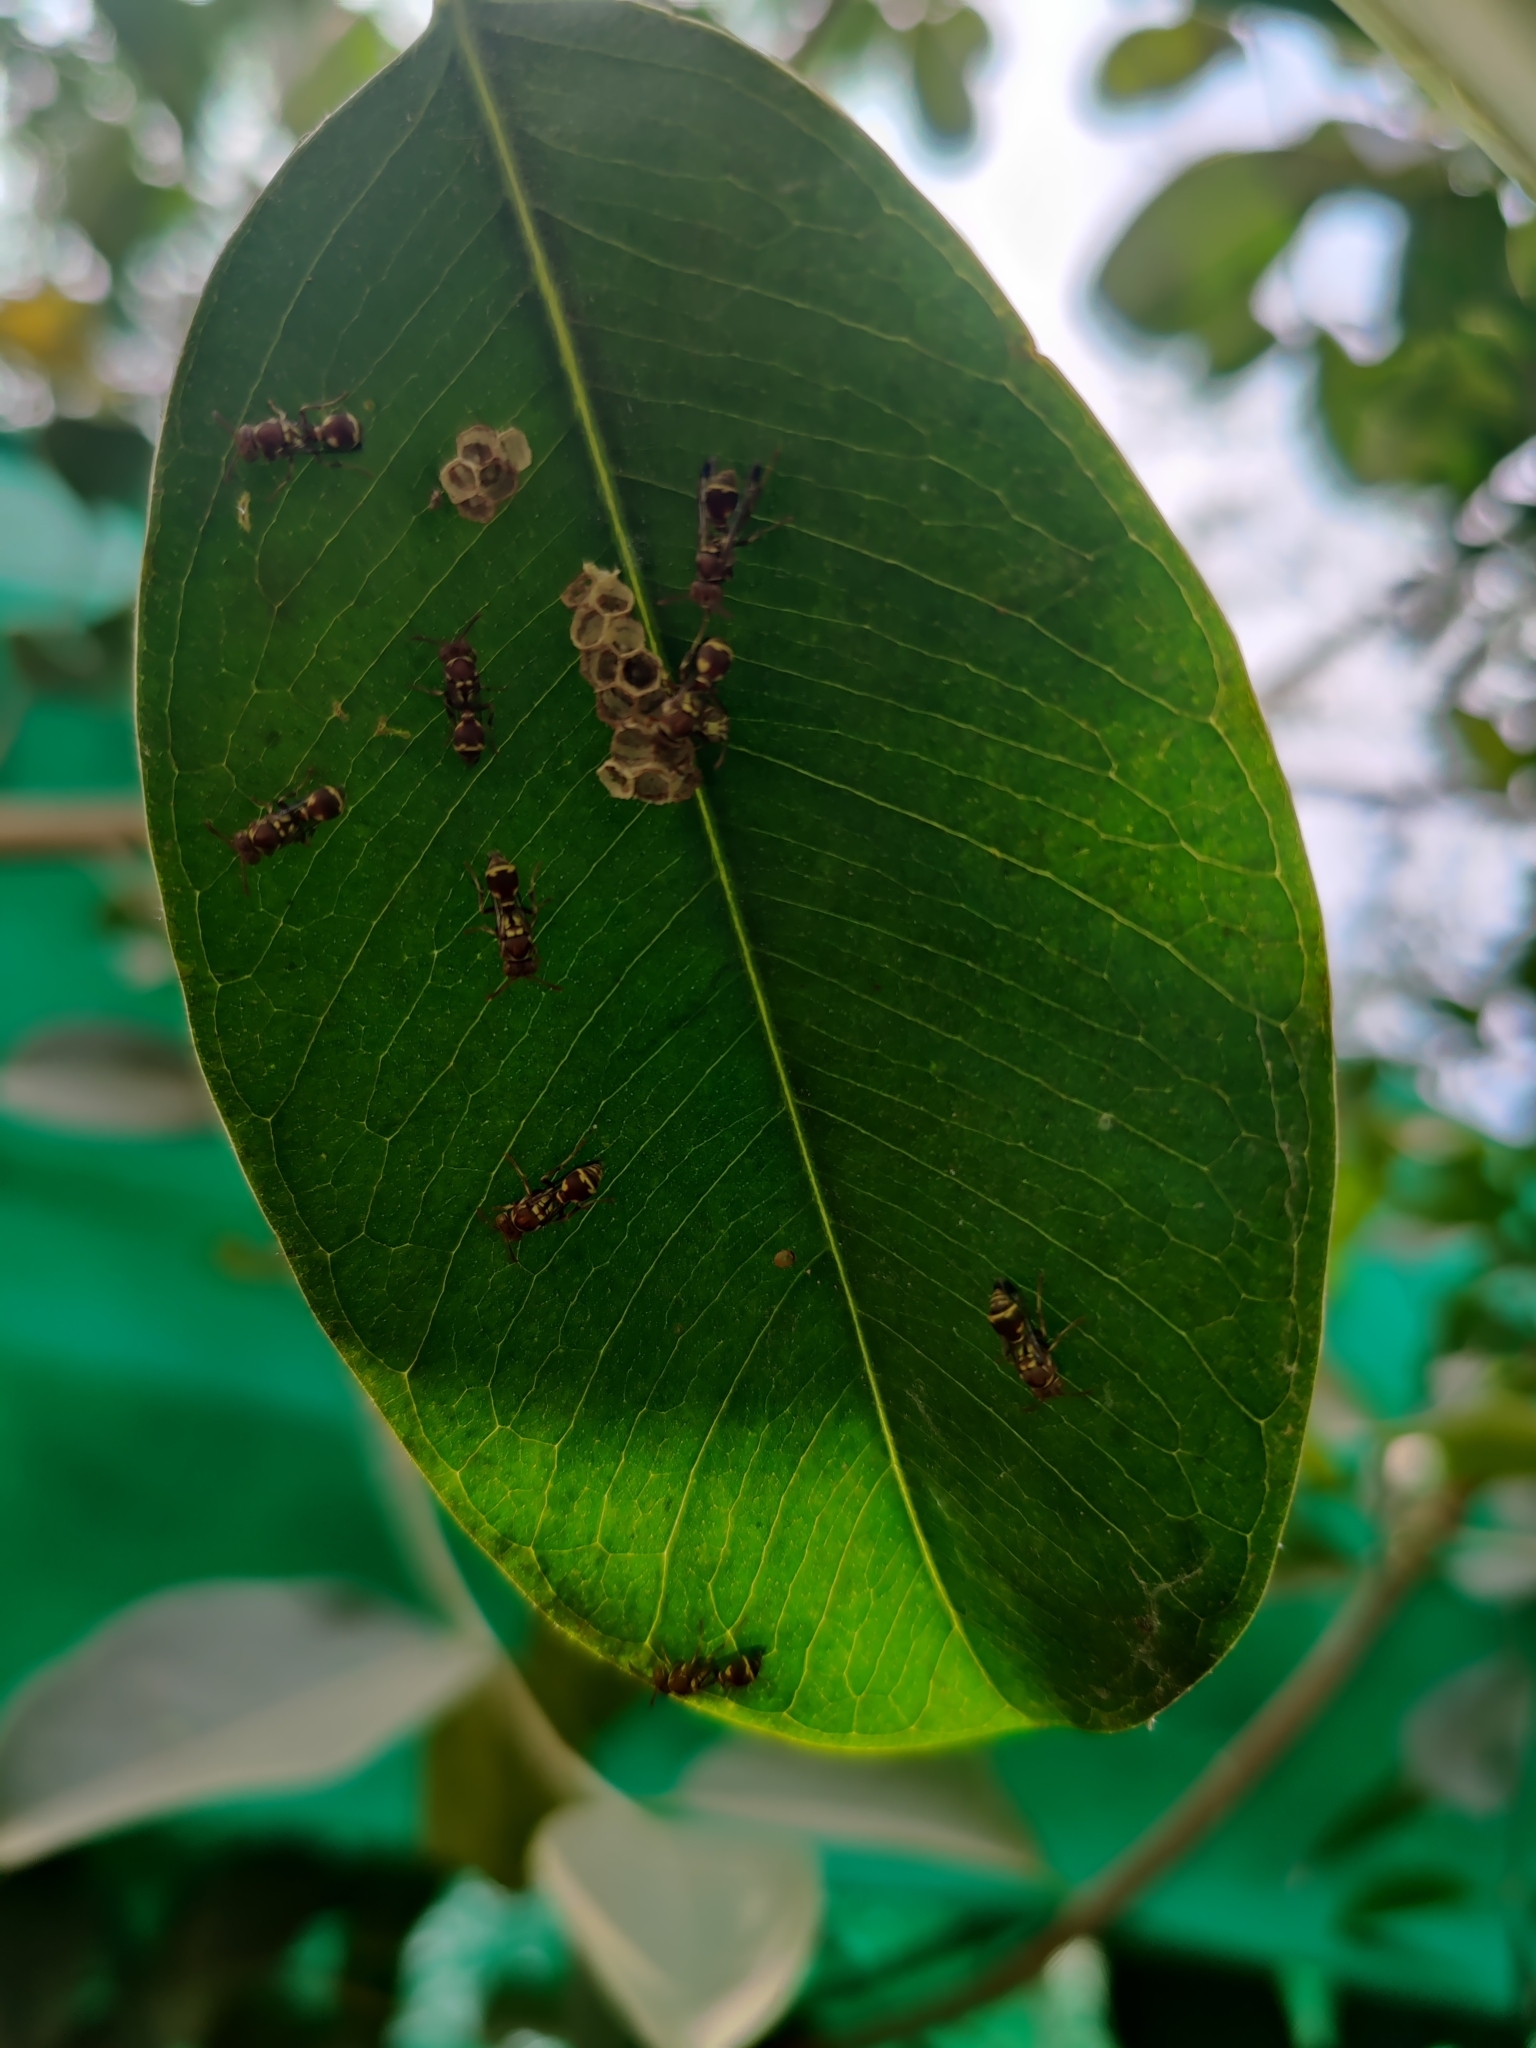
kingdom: Animalia
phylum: Arthropoda
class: Insecta
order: Hymenoptera
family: Vespidae
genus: Ropalidia
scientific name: Ropalidia cyathiformis
